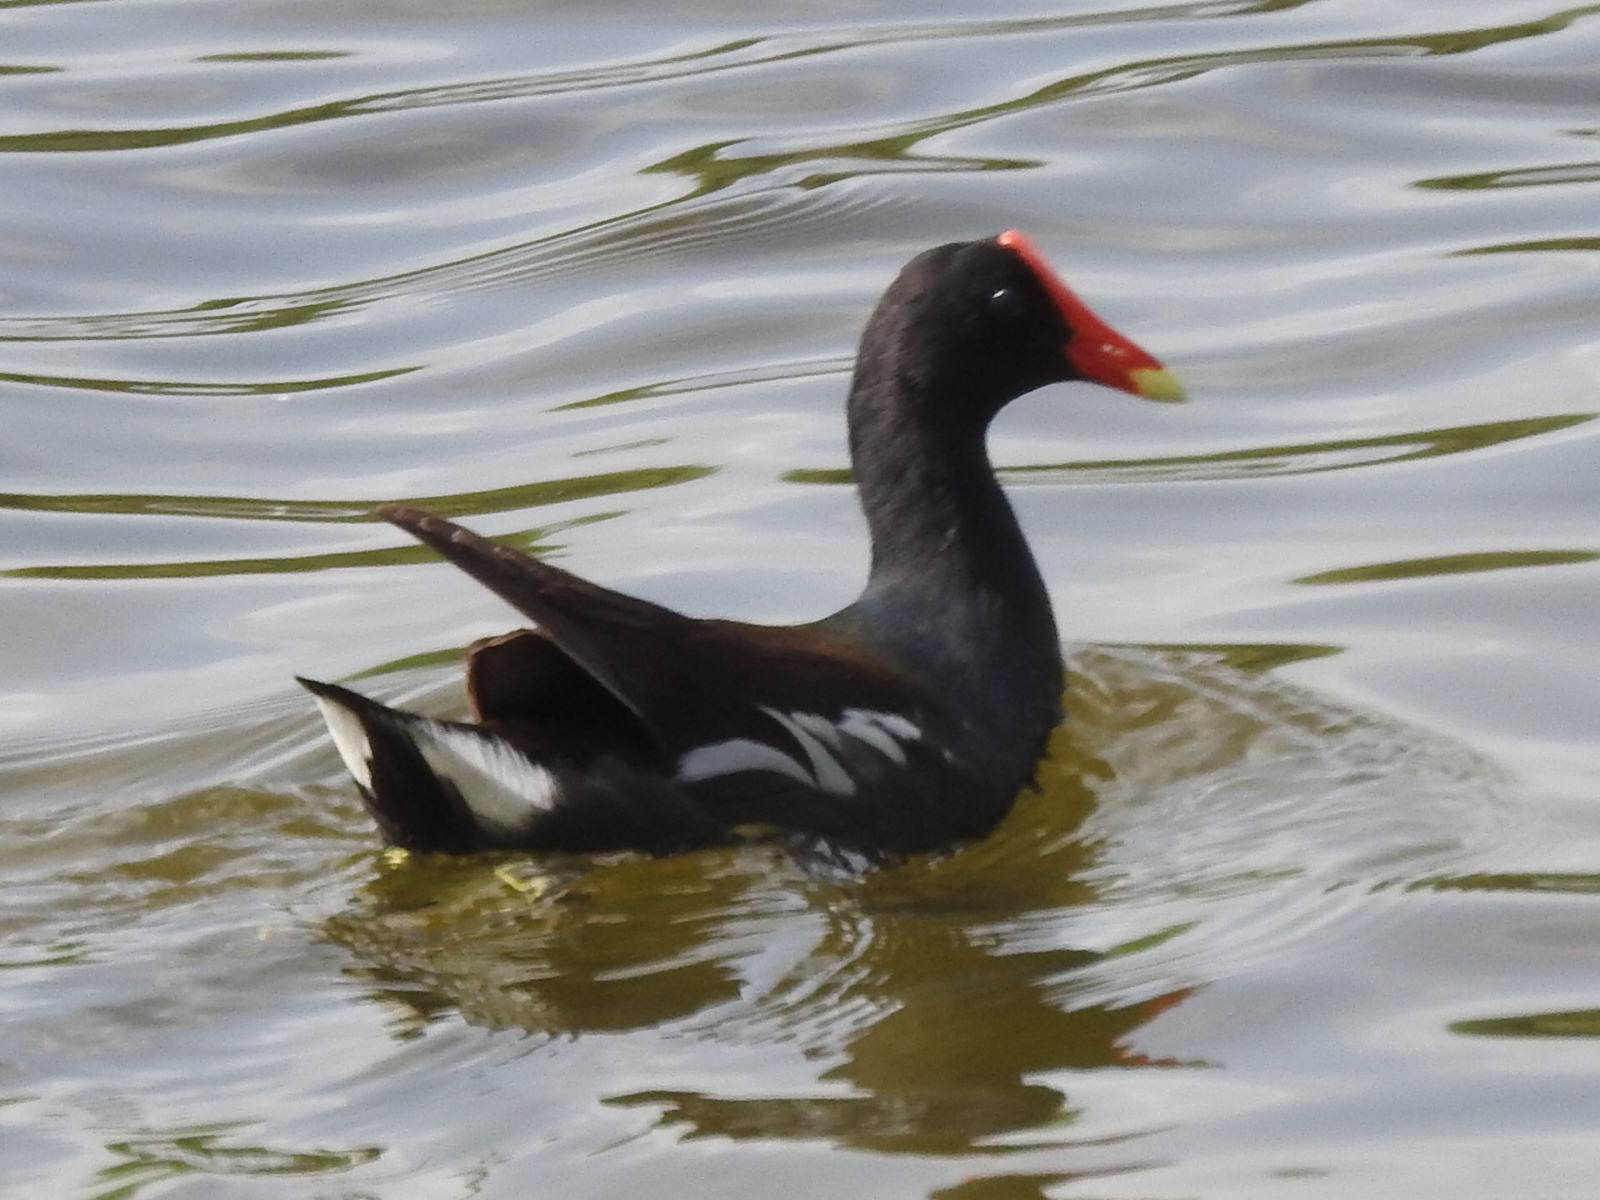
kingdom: Animalia
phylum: Chordata
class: Aves
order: Gruiformes
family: Rallidae
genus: Gallinula
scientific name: Gallinula chloropus
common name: Common moorhen
